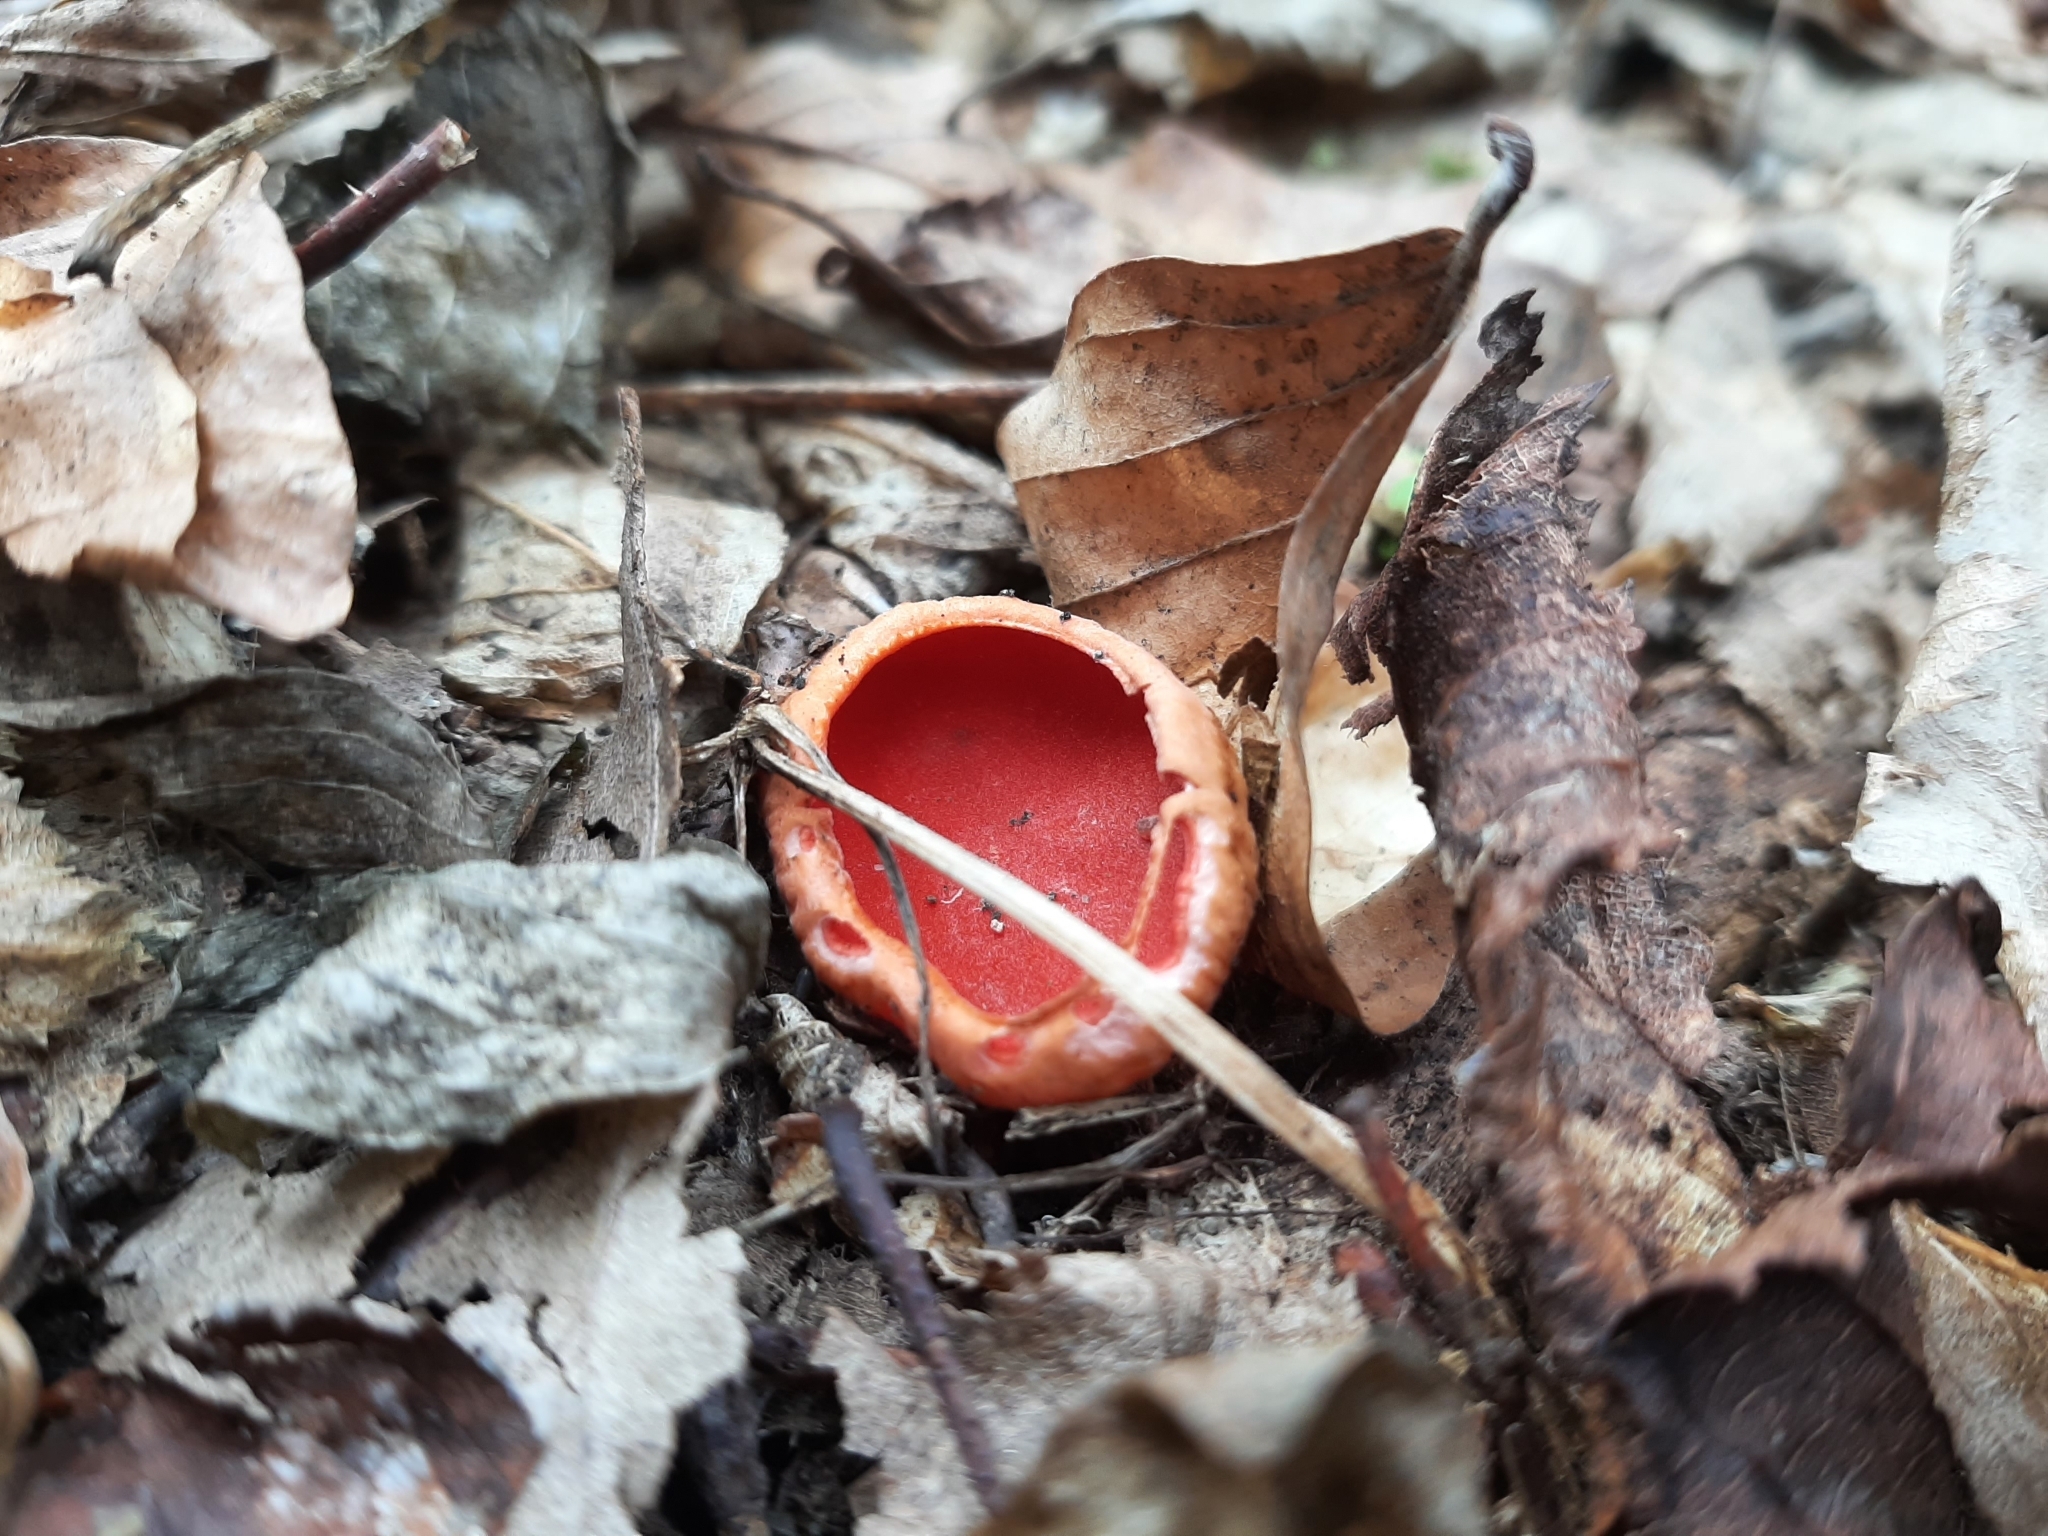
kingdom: Fungi
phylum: Ascomycota
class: Pezizomycetes
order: Pezizales
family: Sarcoscyphaceae
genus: Sarcoscypha
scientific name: Sarcoscypha
